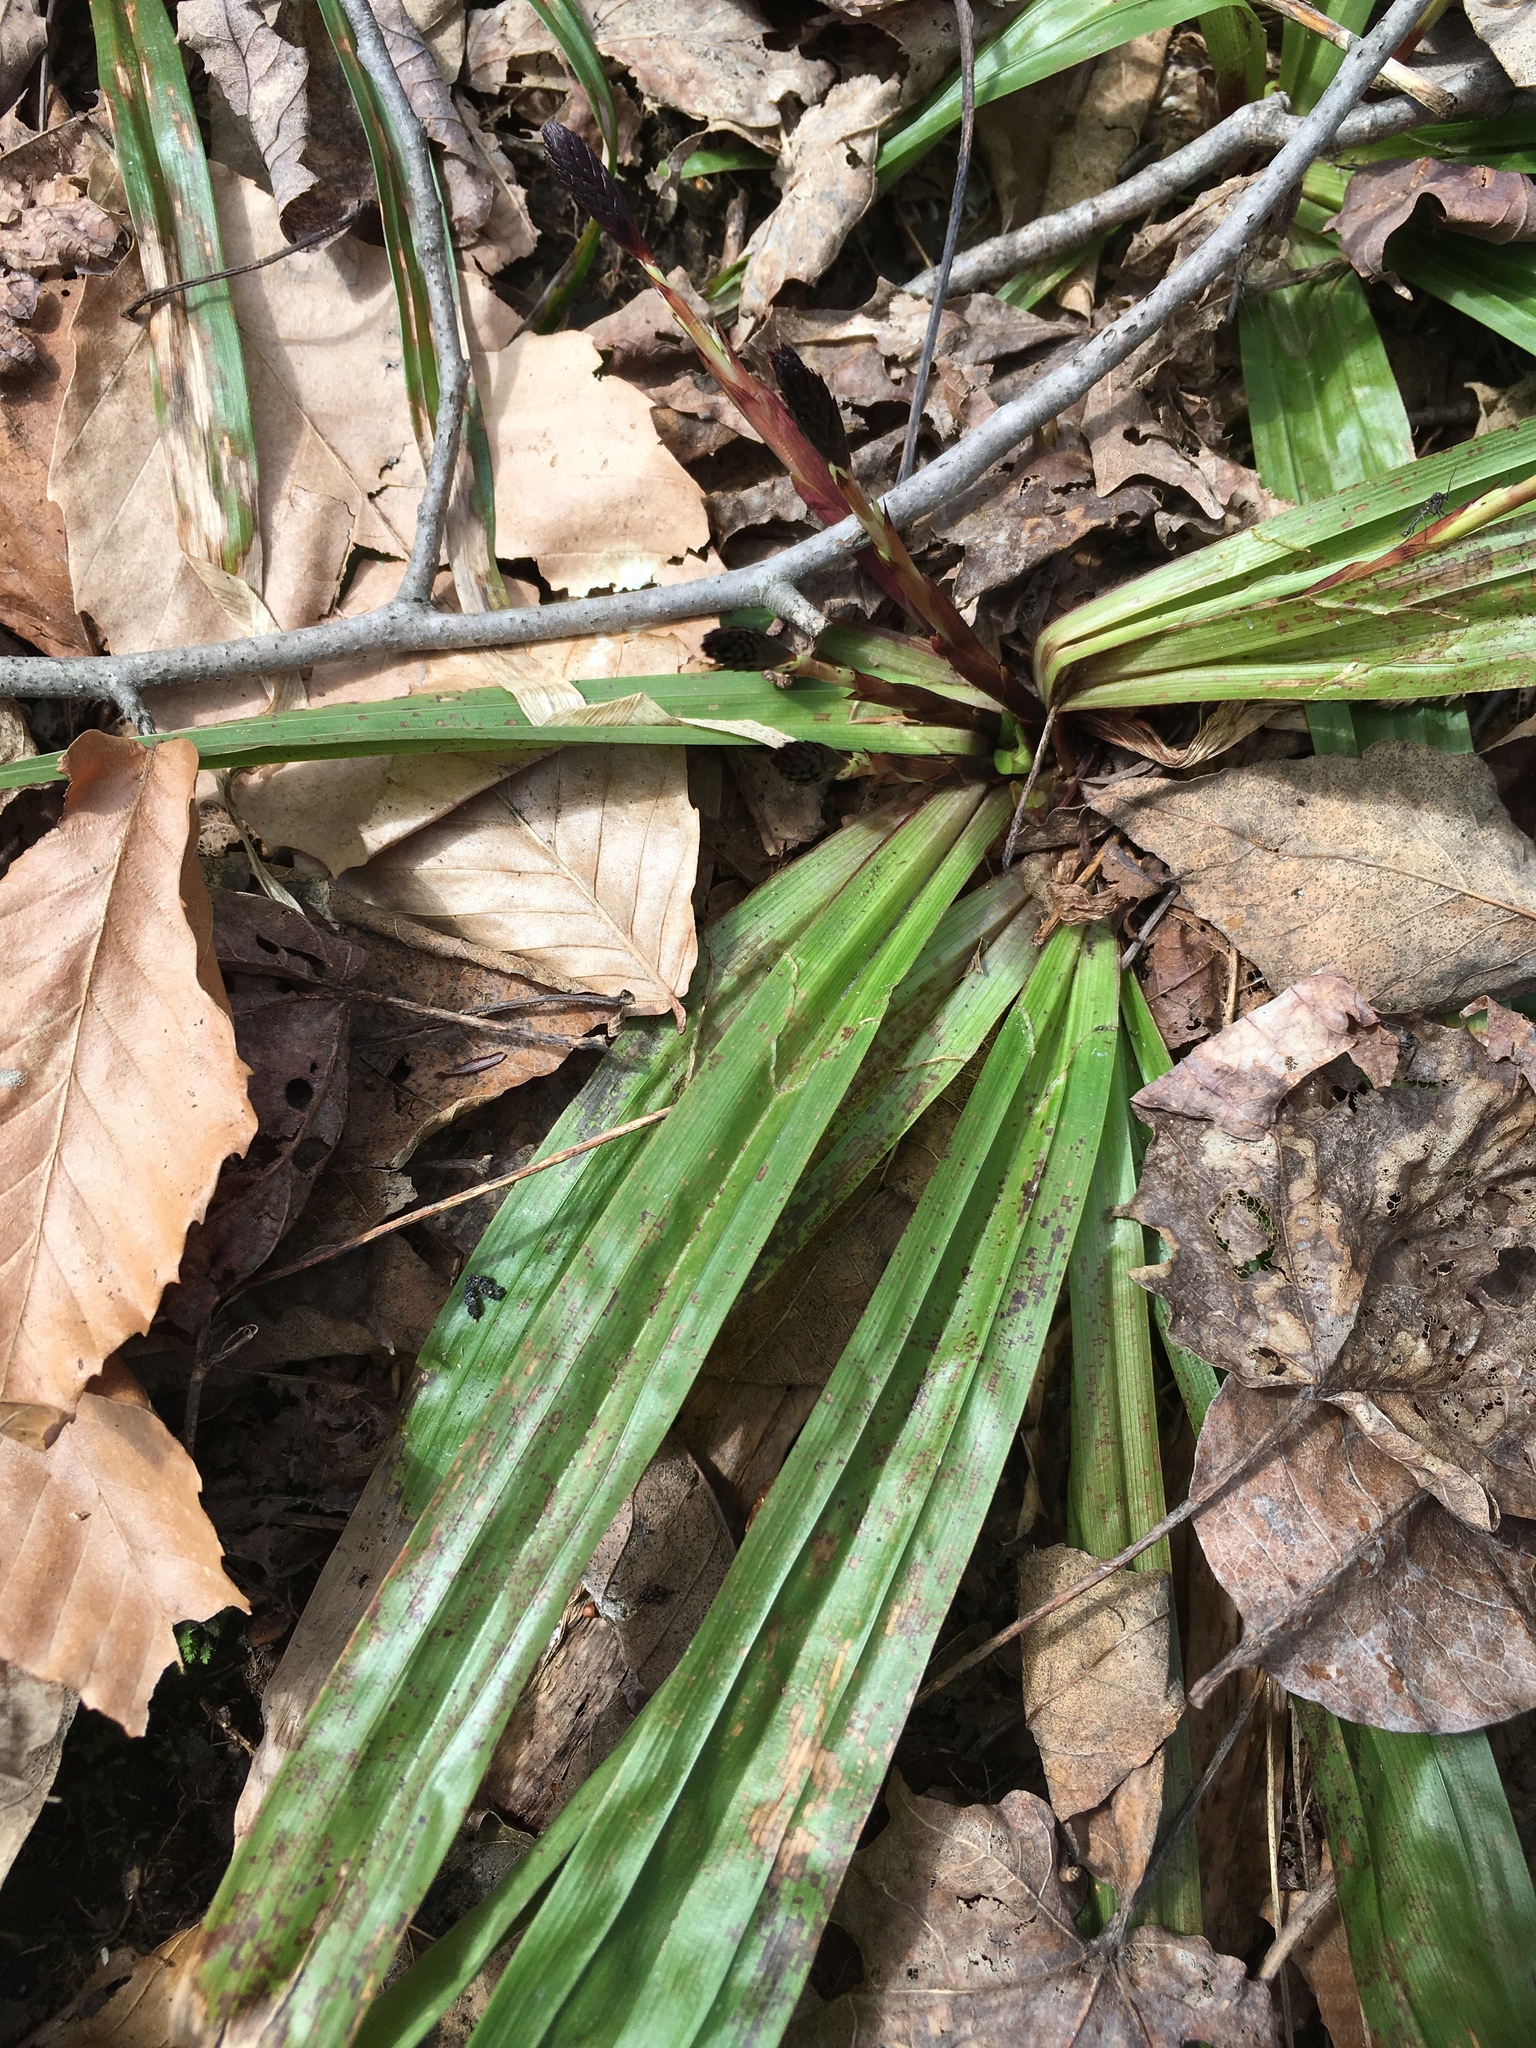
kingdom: Plantae
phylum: Tracheophyta
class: Liliopsida
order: Poales
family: Cyperaceae
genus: Carex
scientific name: Carex plantaginea
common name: Plantain-leaved sedge
